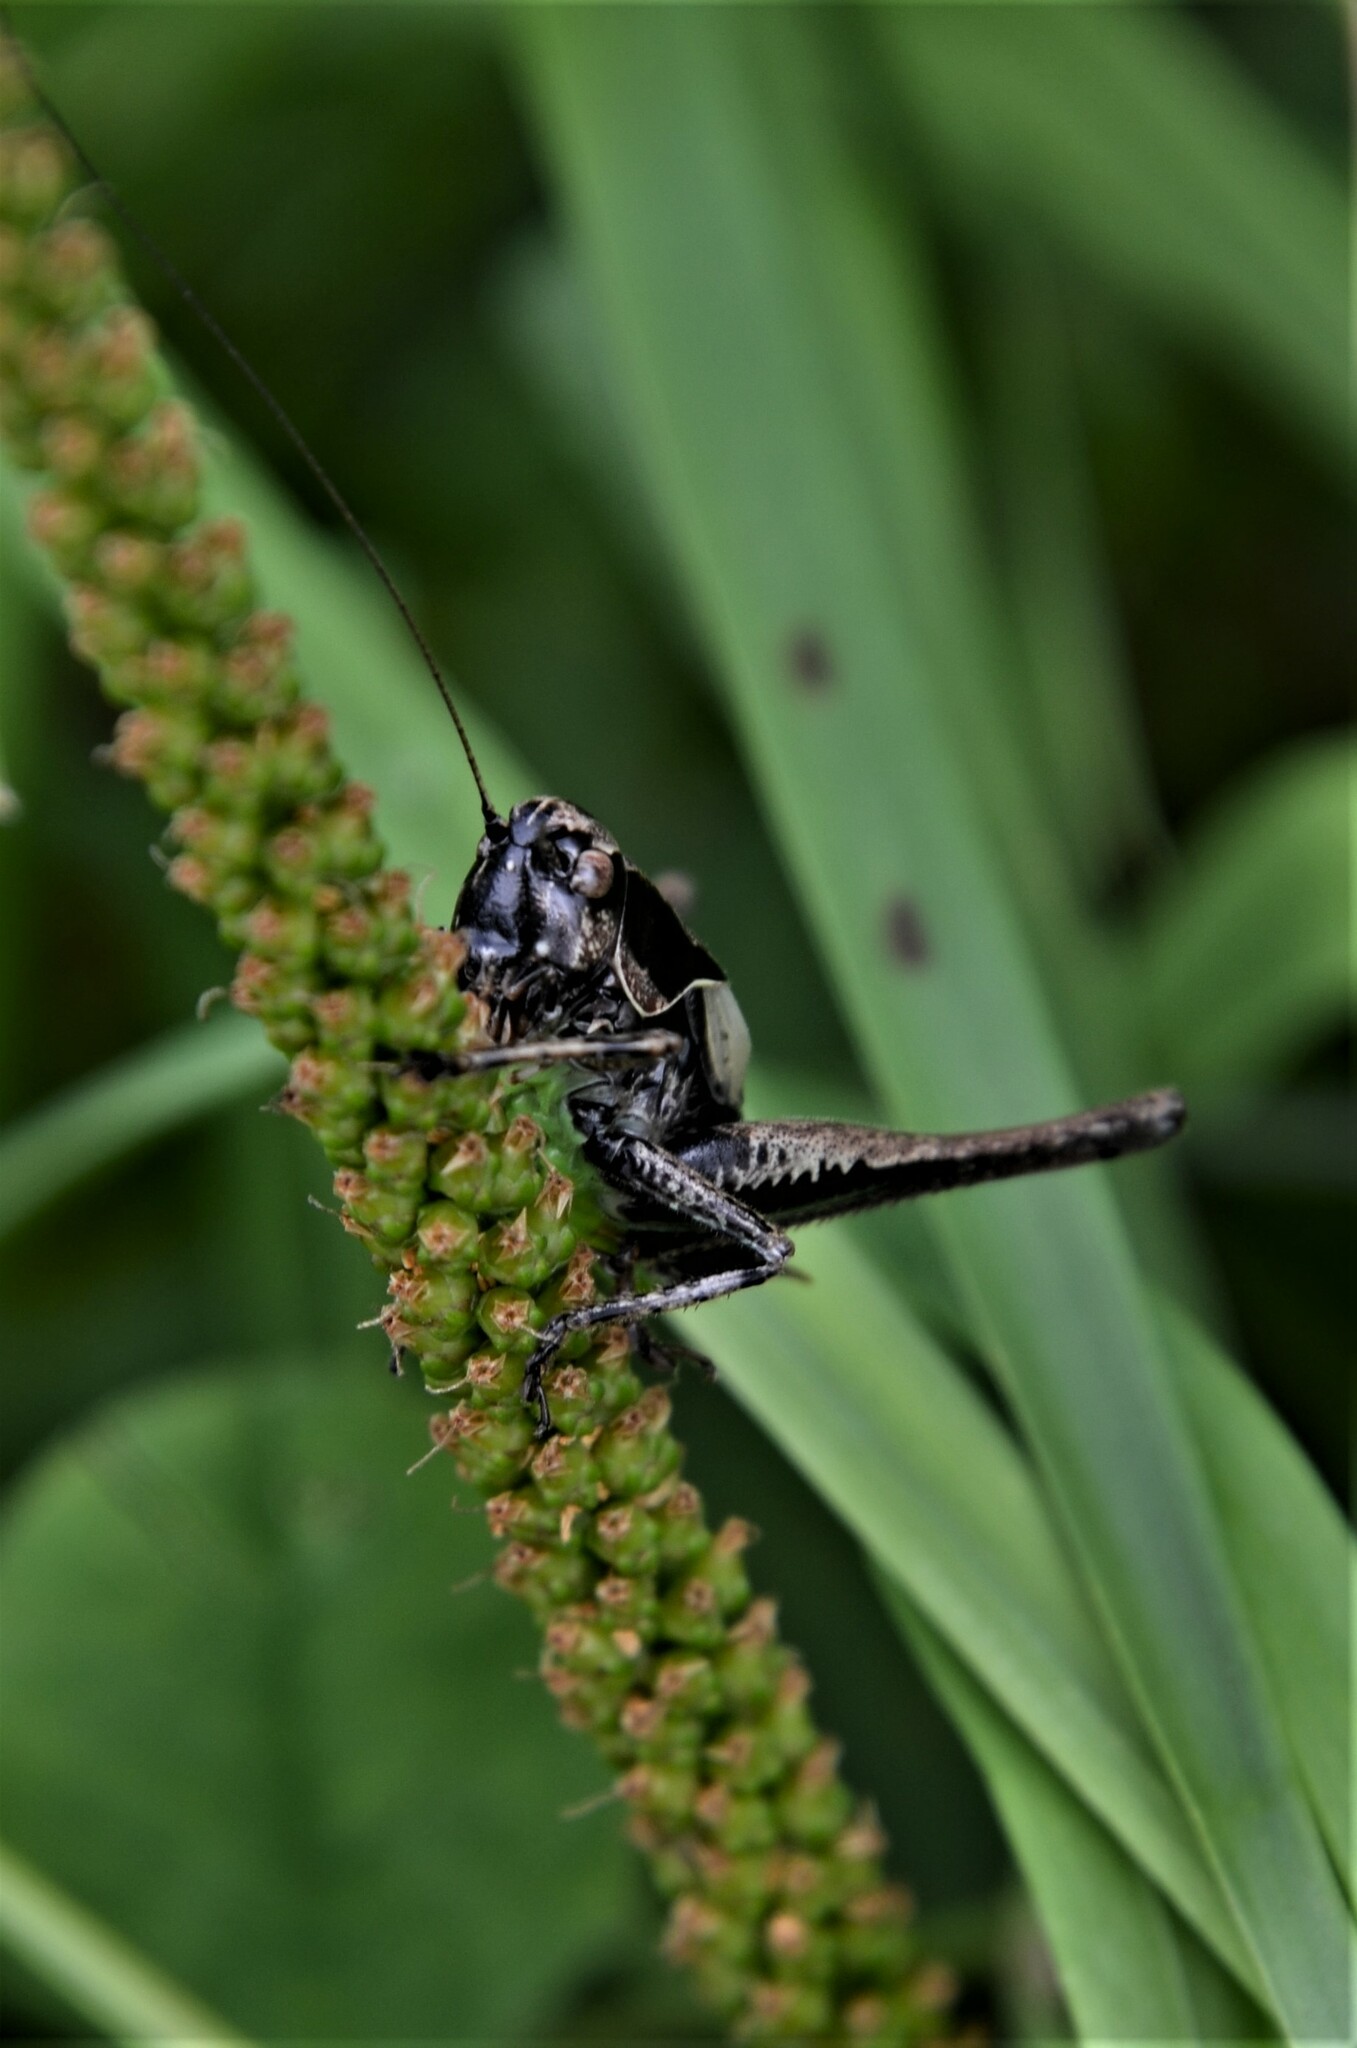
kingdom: Animalia
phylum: Arthropoda
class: Insecta
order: Orthoptera
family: Tettigoniidae
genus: Pholidoptera
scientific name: Pholidoptera griseoaptera
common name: Dark bush-cricket
